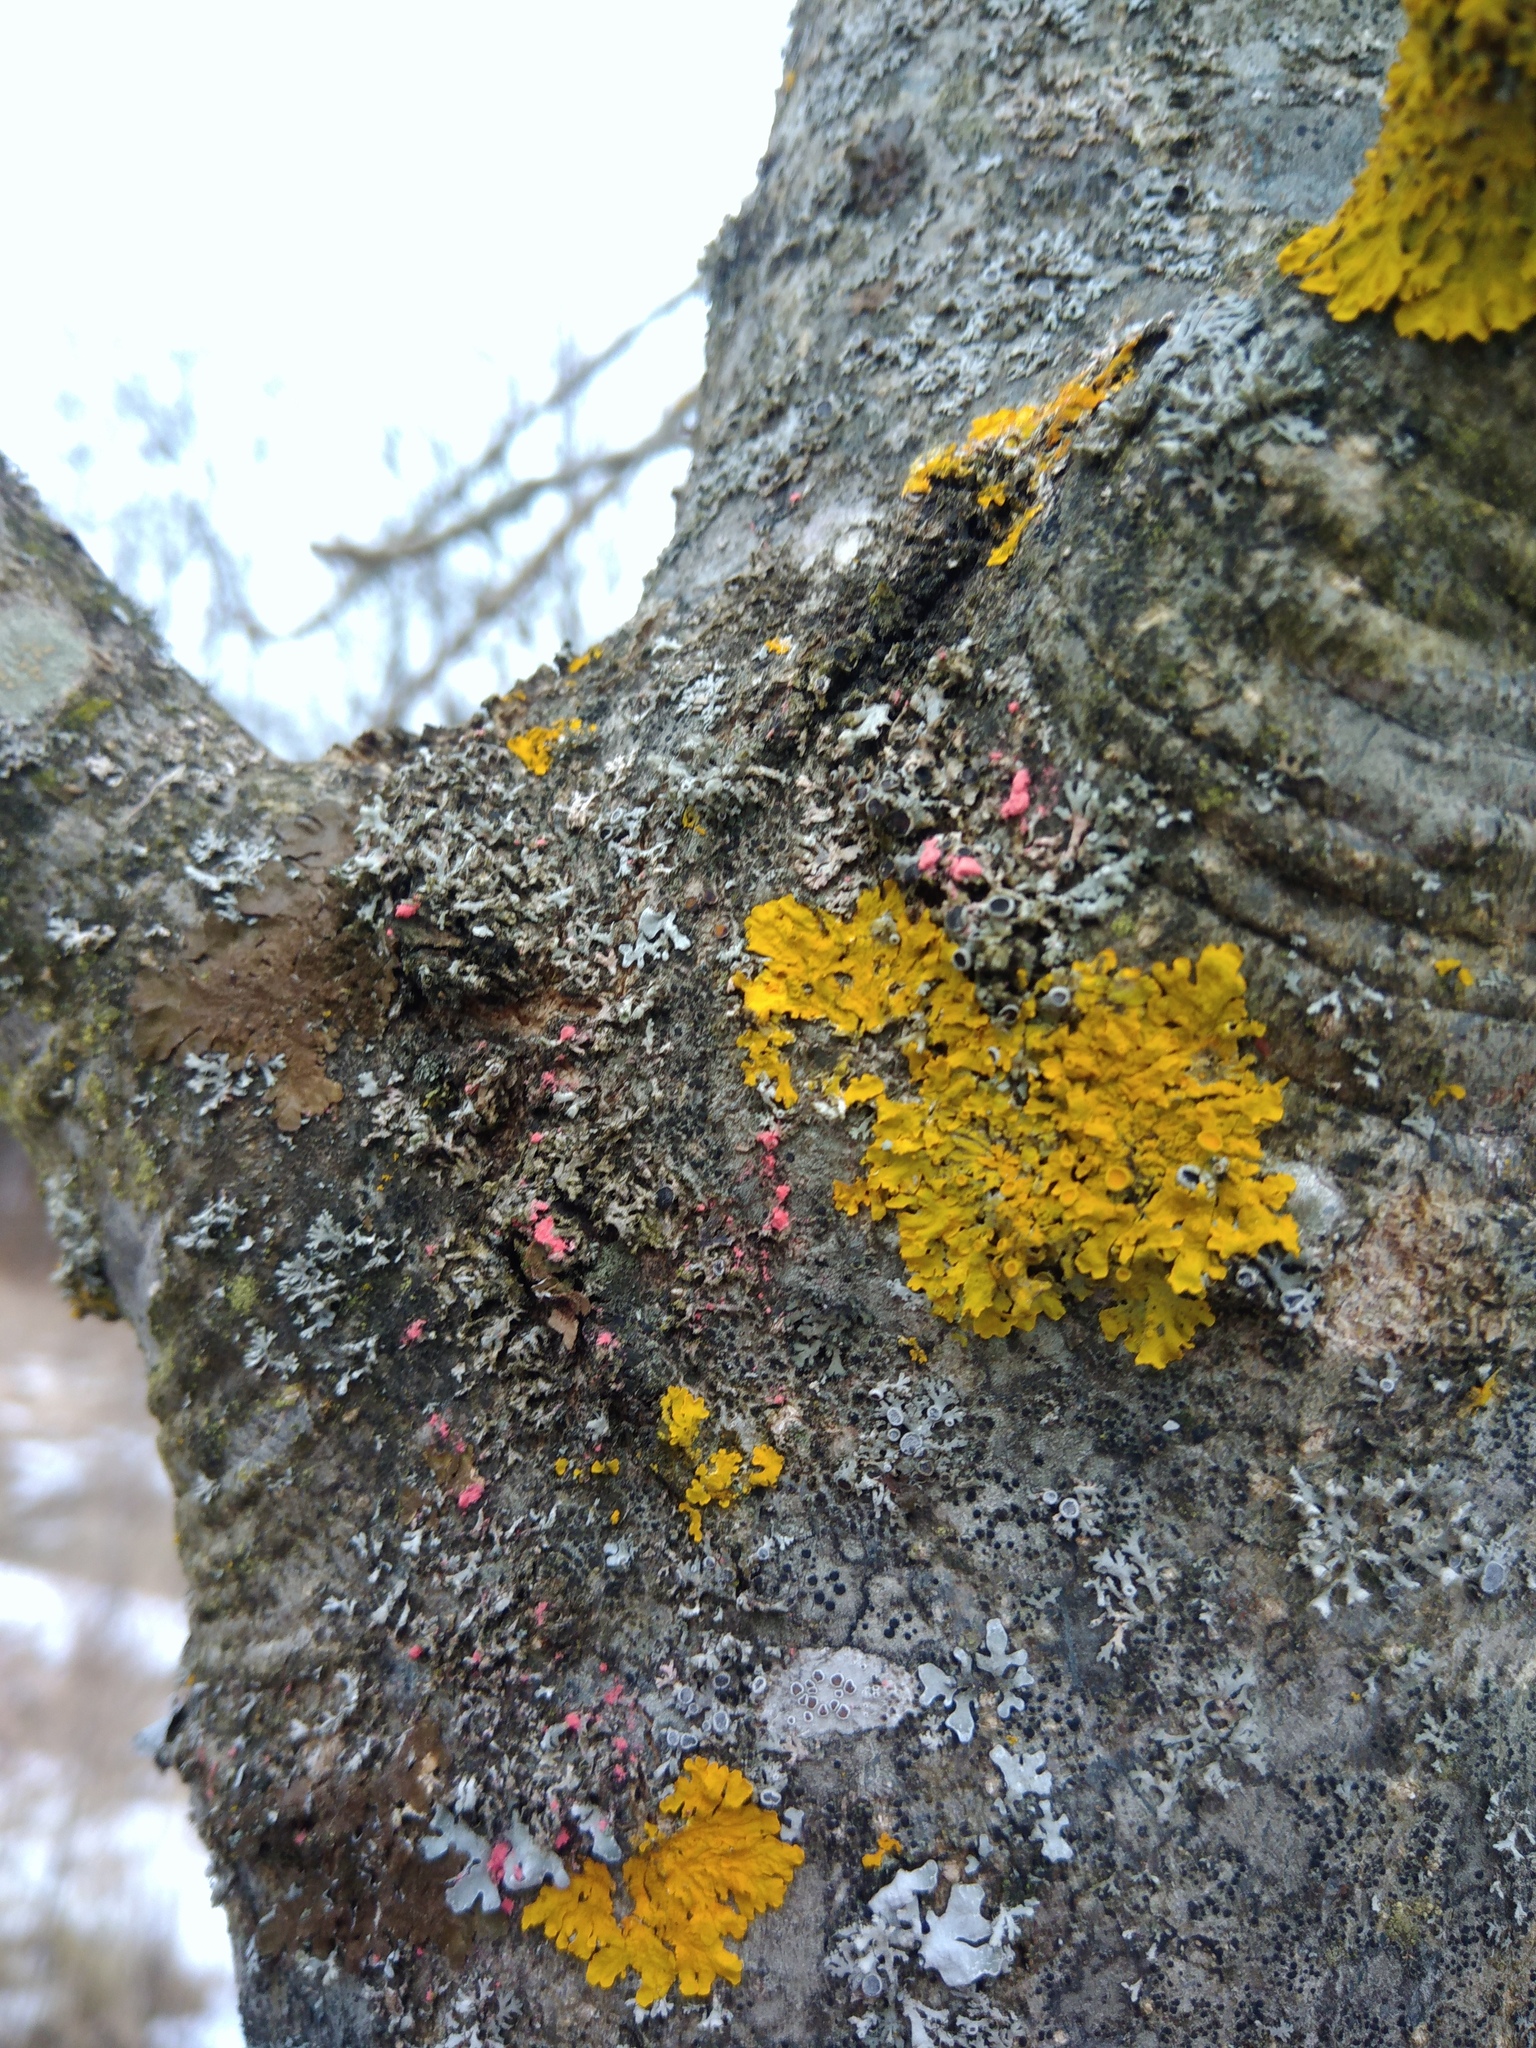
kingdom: Fungi
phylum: Ascomycota
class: Lecanoromycetes
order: Teloschistales
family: Teloschistaceae
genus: Xanthoria
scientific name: Xanthoria parietina
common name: Common orange lichen
